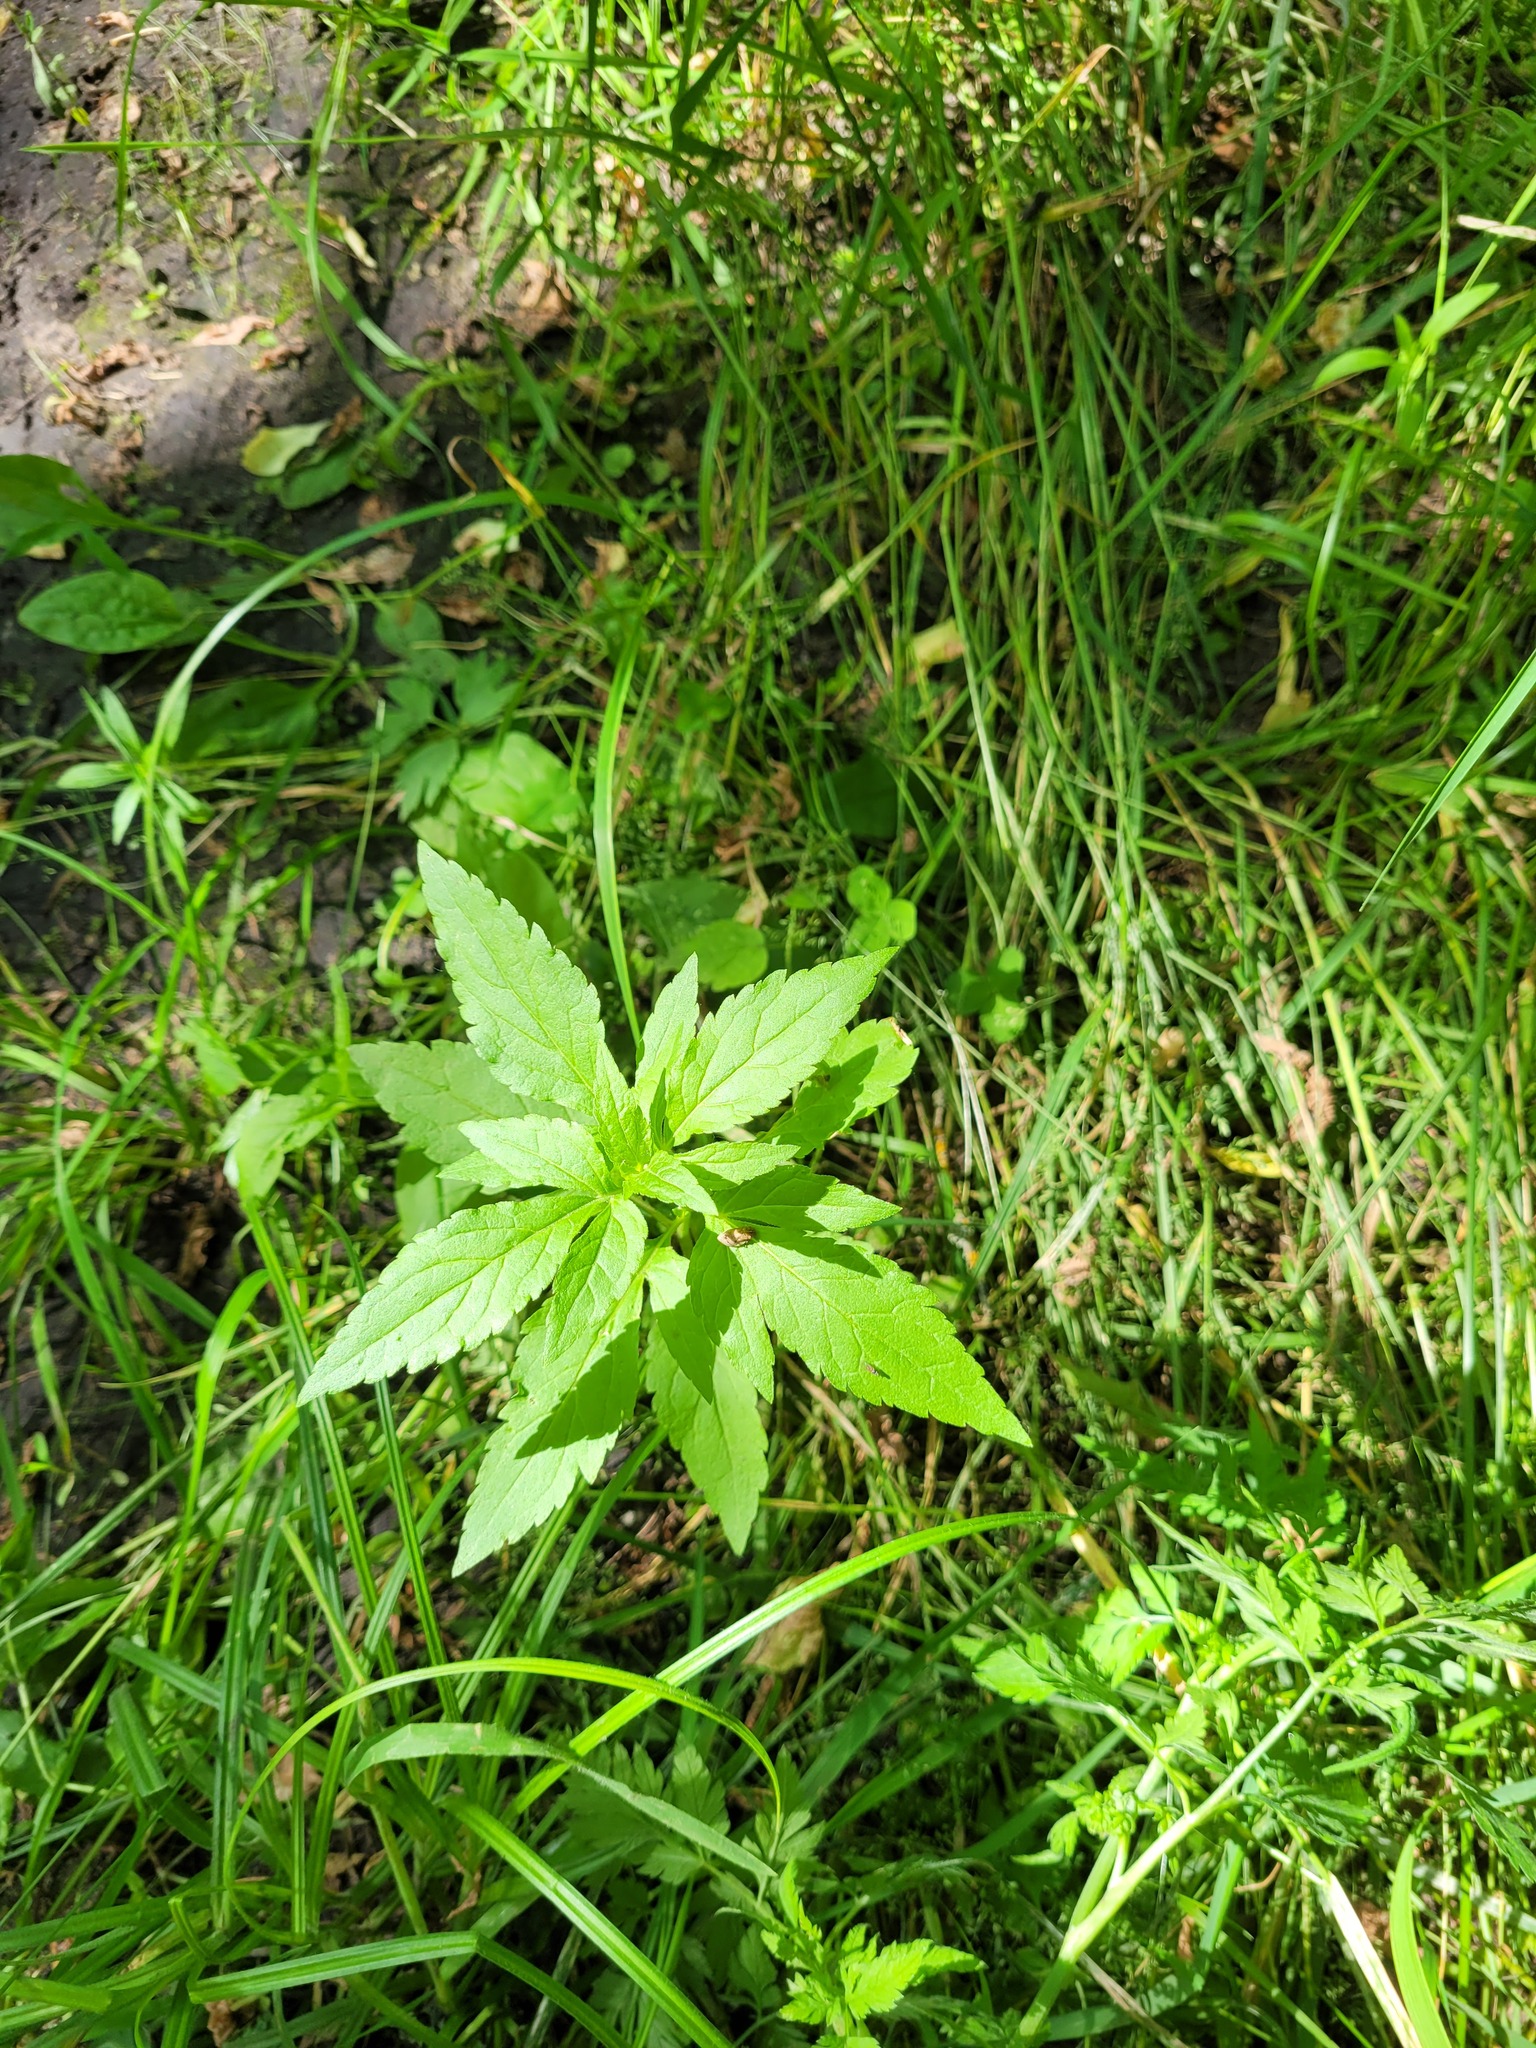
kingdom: Plantae
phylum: Tracheophyta
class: Magnoliopsida
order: Asterales
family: Asteraceae
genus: Eupatorium
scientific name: Eupatorium cannabinum
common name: Hemp-agrimony
